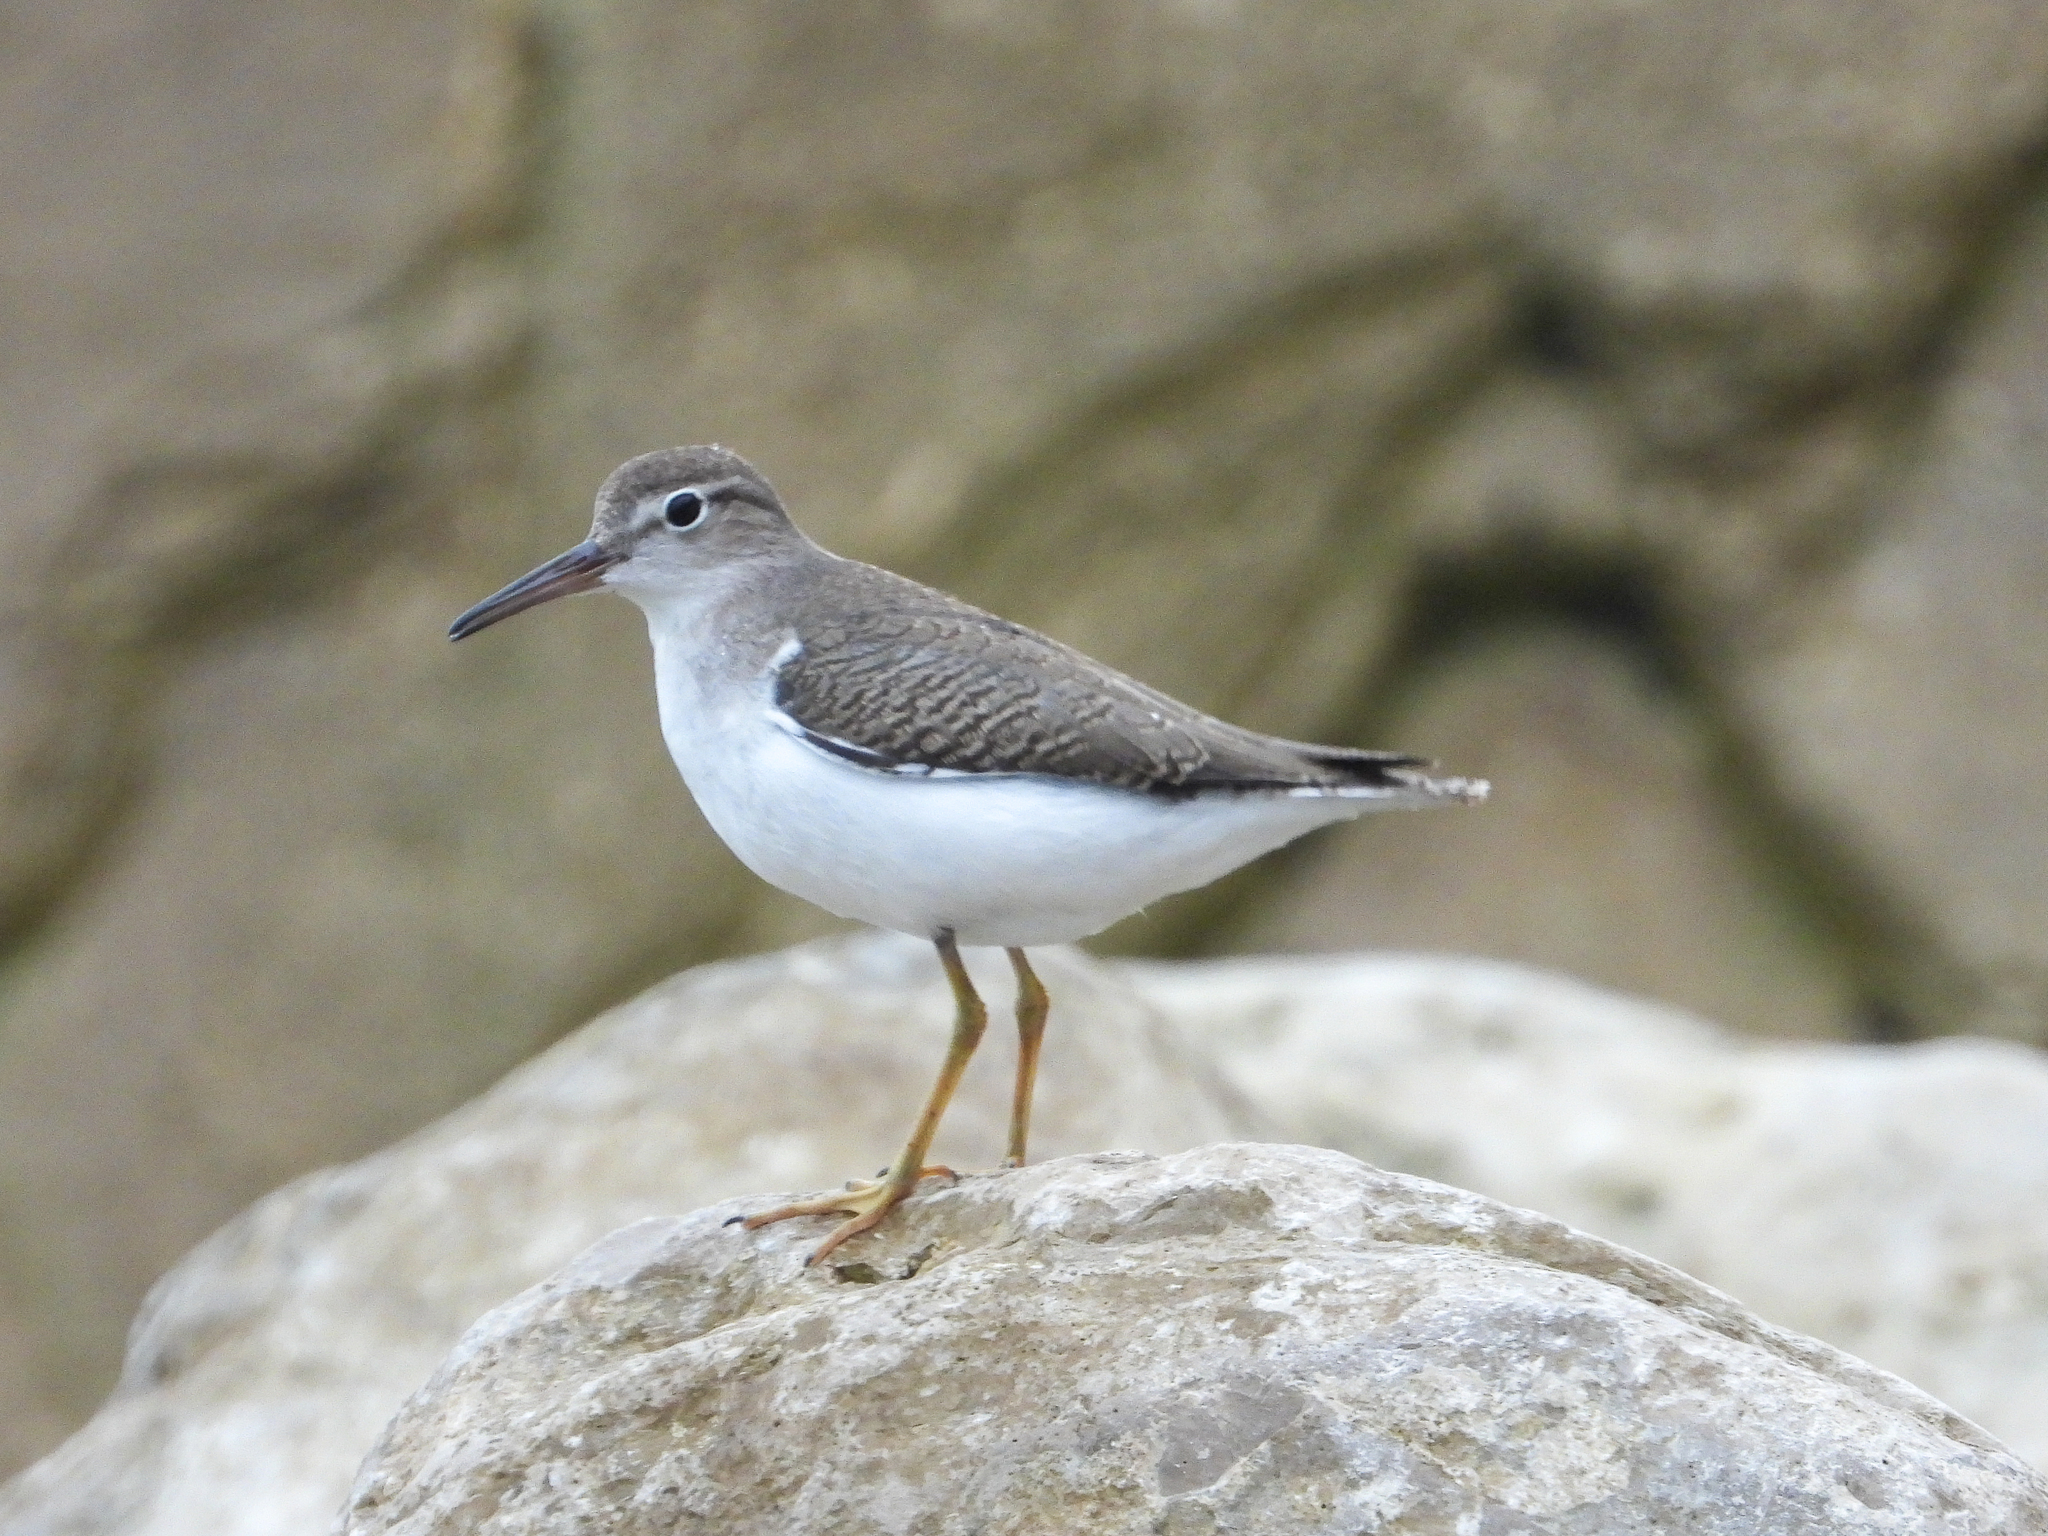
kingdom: Animalia
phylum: Chordata
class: Aves
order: Charadriiformes
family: Scolopacidae
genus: Actitis
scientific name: Actitis macularius
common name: Spotted sandpiper
